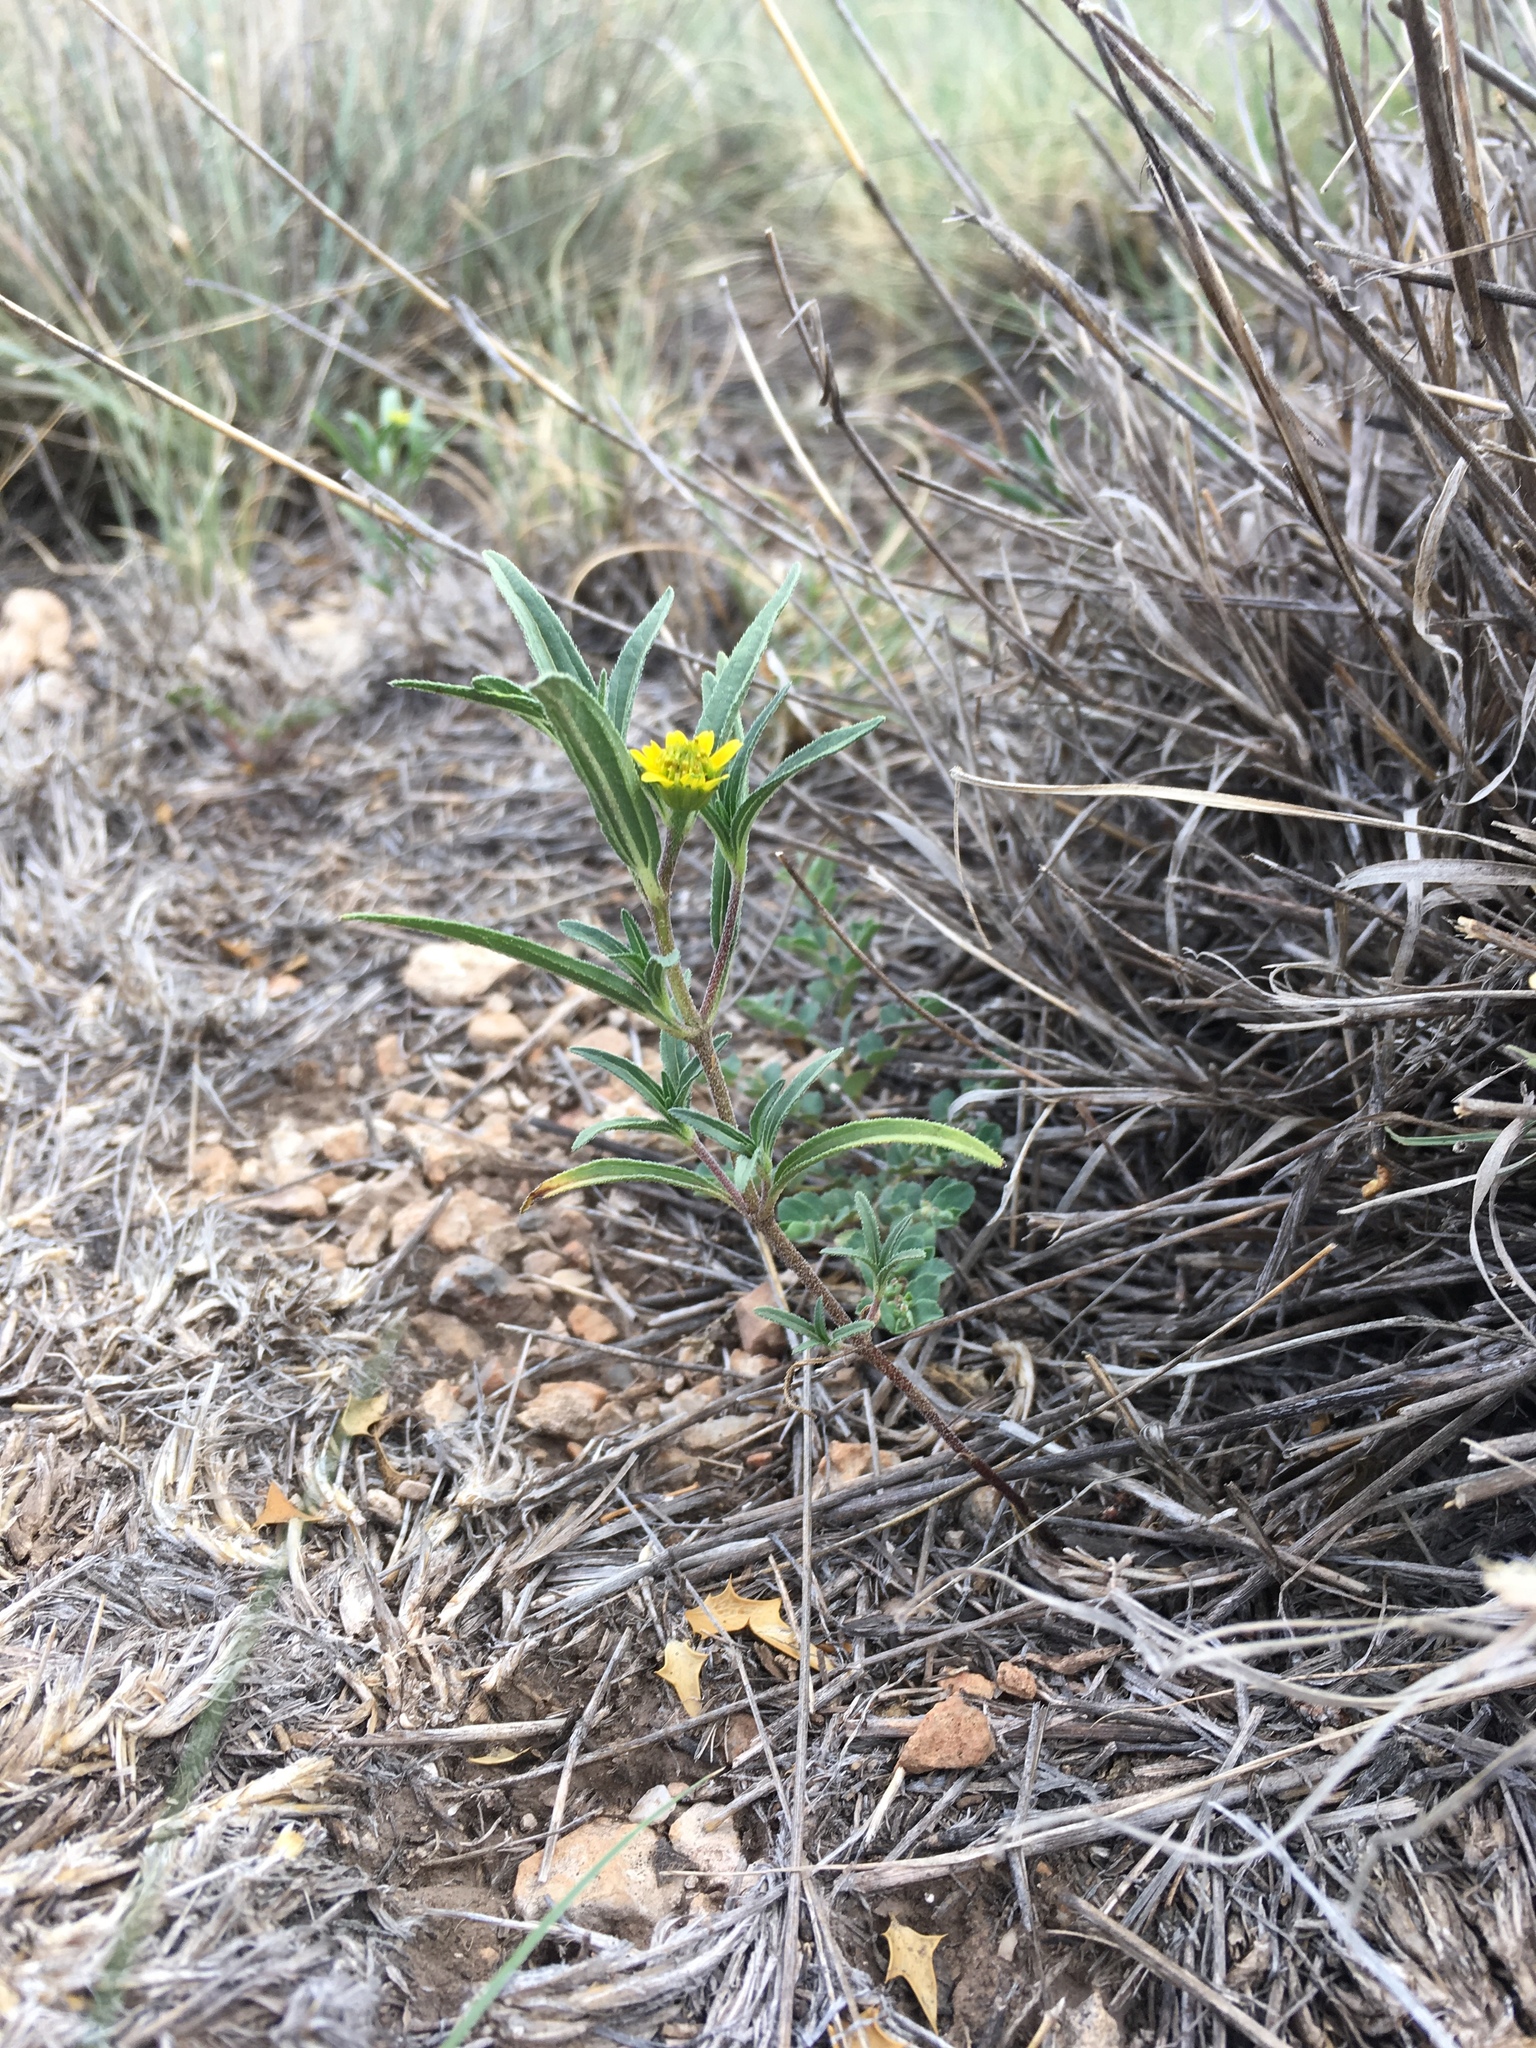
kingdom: Plantae
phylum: Tracheophyta
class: Magnoliopsida
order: Asterales
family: Asteraceae
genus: Sanvitalia
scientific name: Sanvitalia abertii
